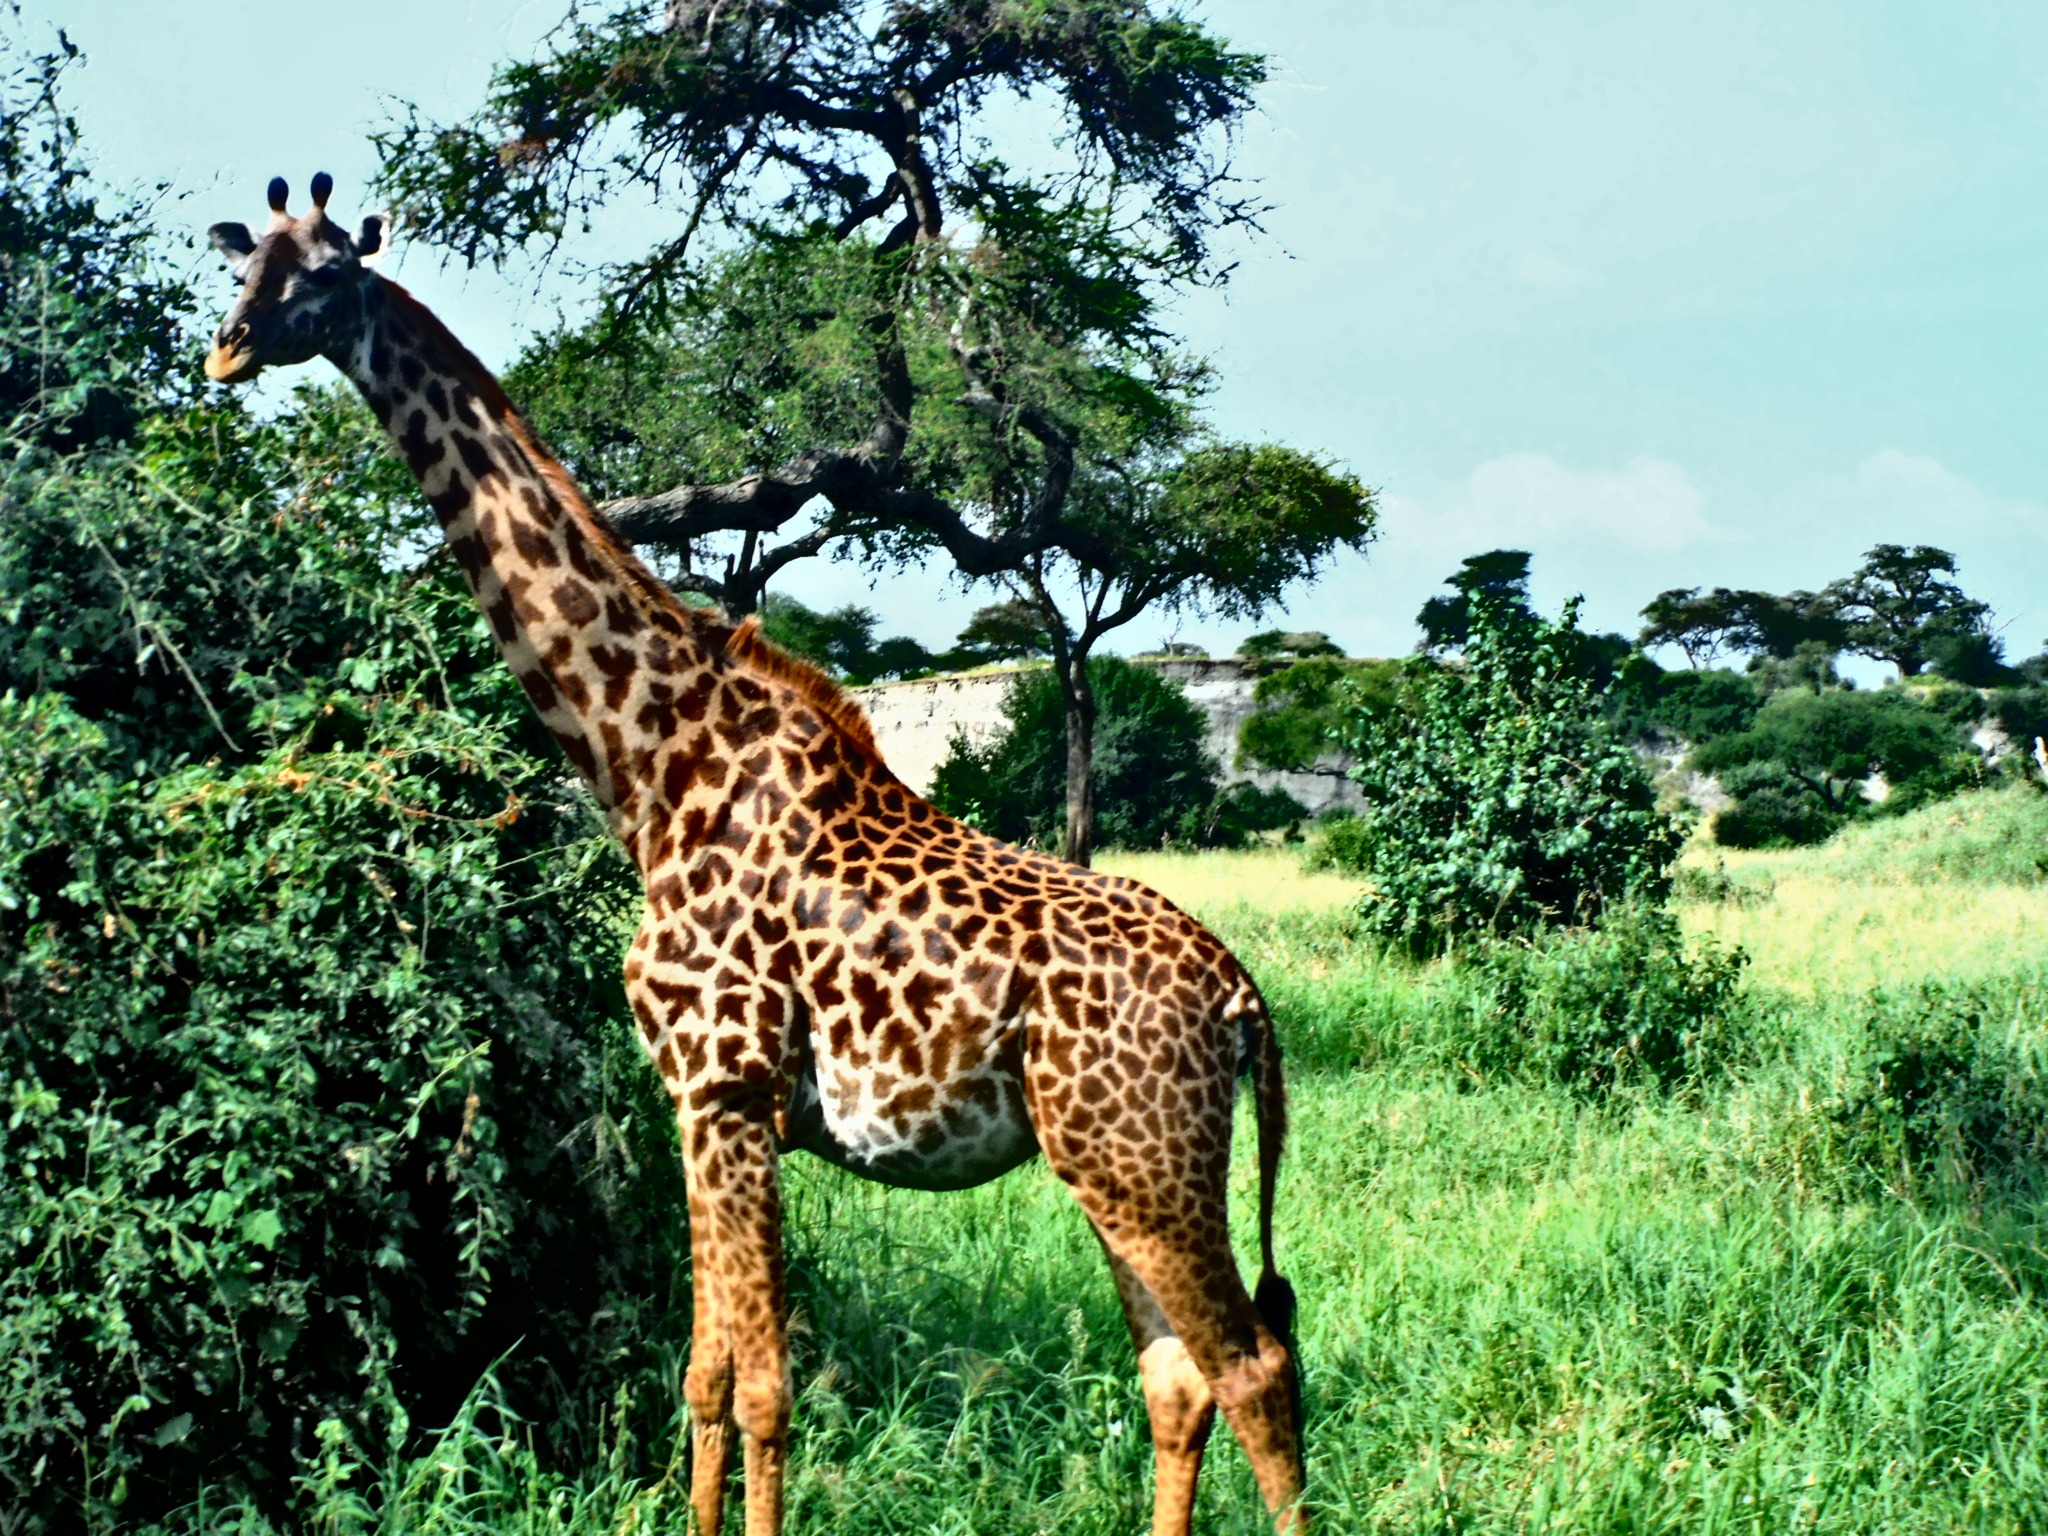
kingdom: Animalia
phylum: Chordata
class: Mammalia
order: Artiodactyla
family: Giraffidae
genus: Giraffa
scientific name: Giraffa tippelskirchi
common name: Masai giraffe
